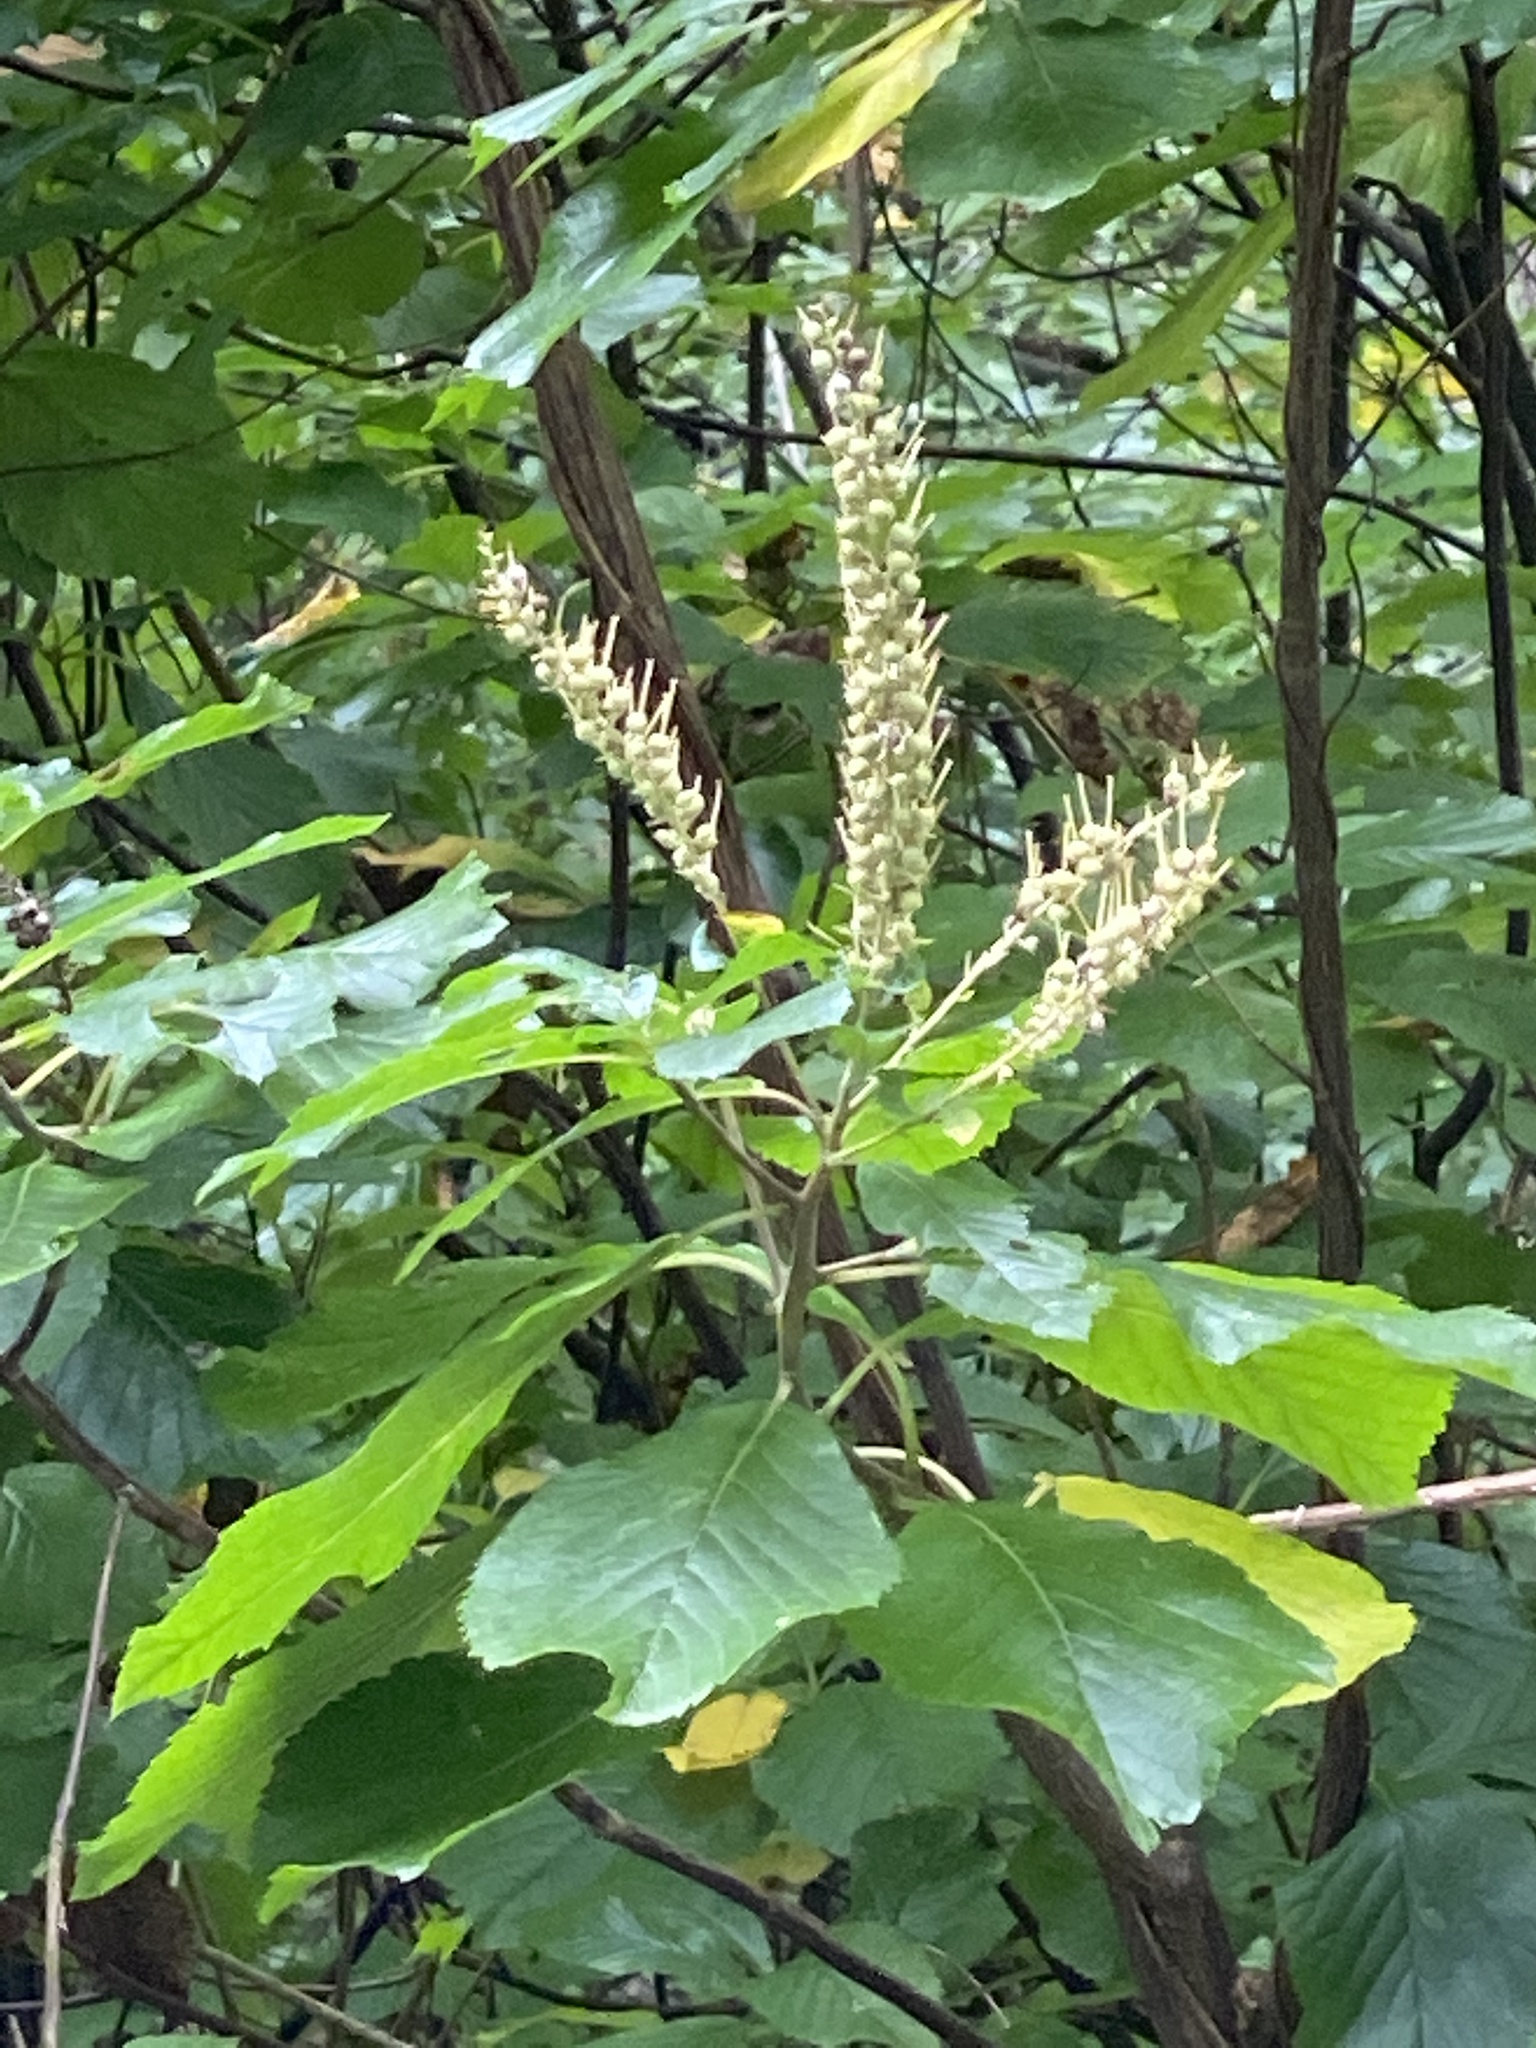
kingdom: Plantae
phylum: Tracheophyta
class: Magnoliopsida
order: Ericales
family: Clethraceae
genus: Clethra
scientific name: Clethra alnifolia
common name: Sweet pepperbush
